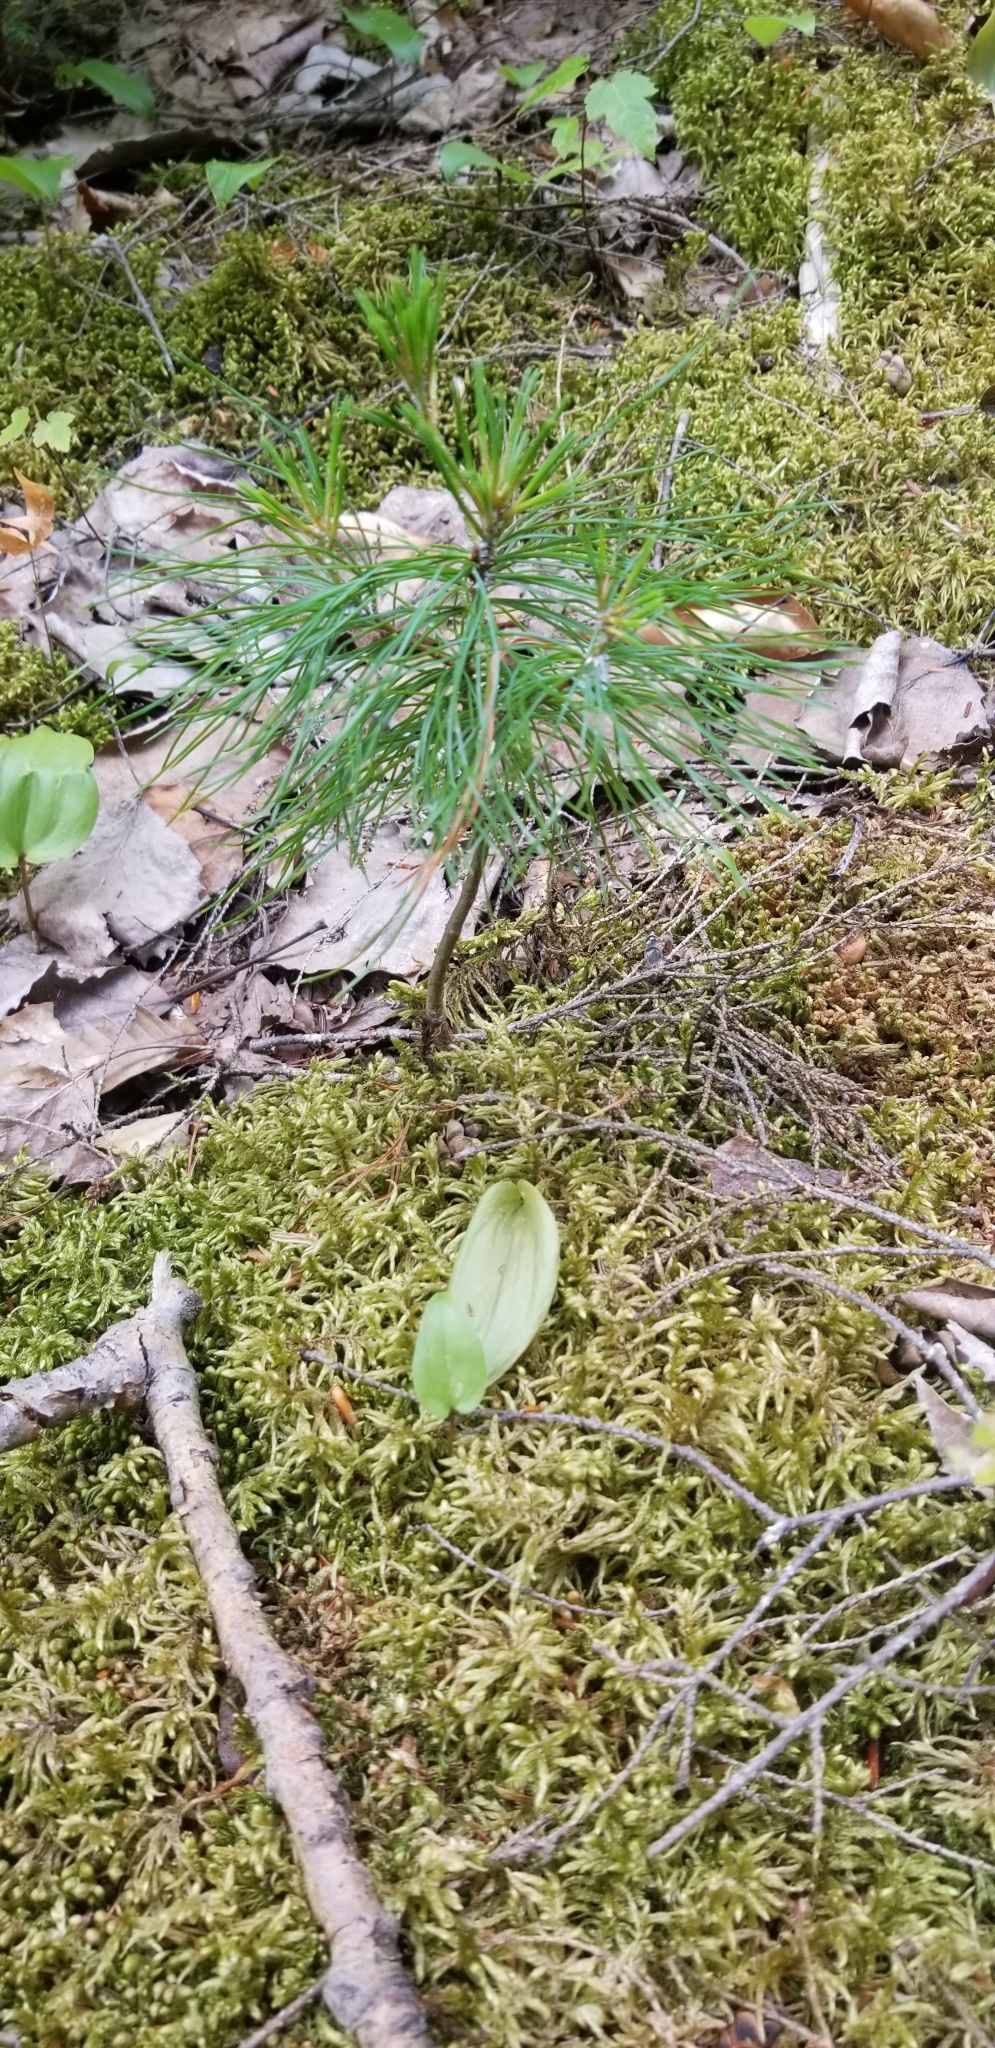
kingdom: Plantae
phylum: Tracheophyta
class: Pinopsida
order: Pinales
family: Pinaceae
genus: Pinus
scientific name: Pinus strobus
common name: Weymouth pine
